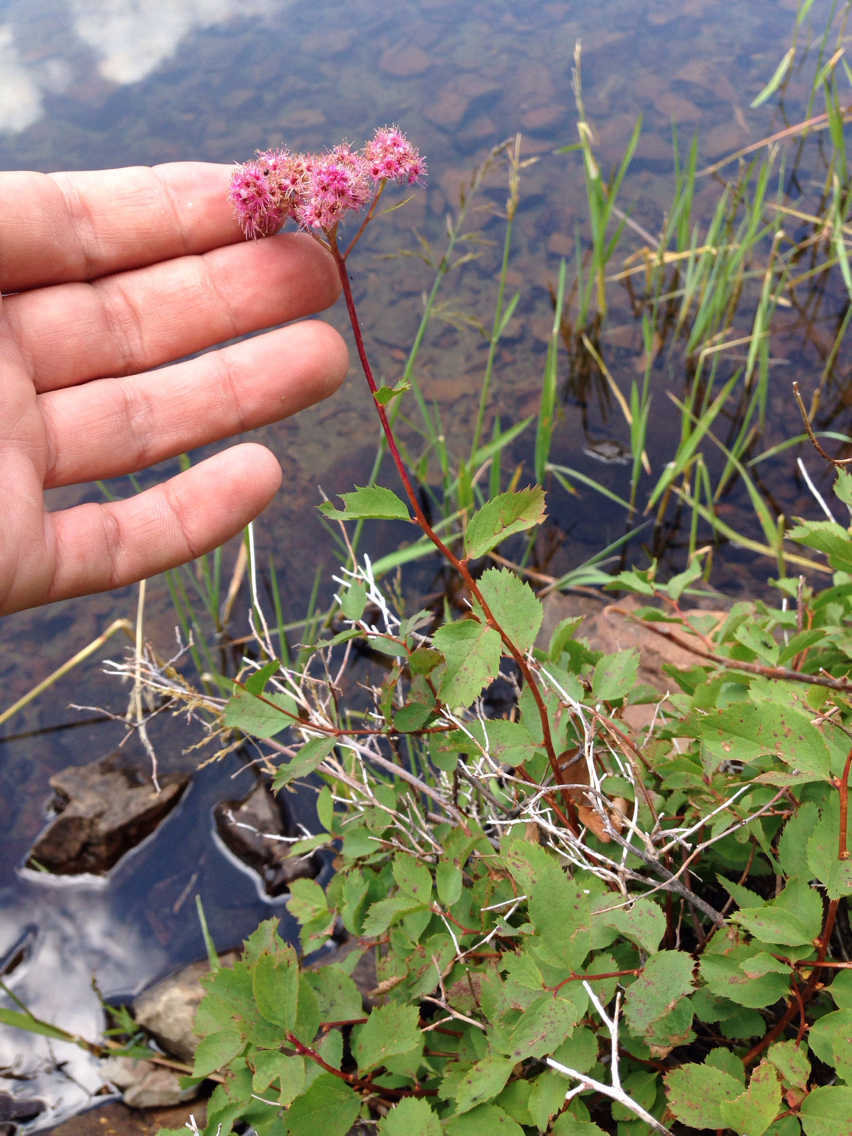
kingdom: Plantae
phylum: Tracheophyta
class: Magnoliopsida
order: Rosales
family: Rosaceae
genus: Spiraea
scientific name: Spiraea splendens
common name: Subalpine meadowsweet
